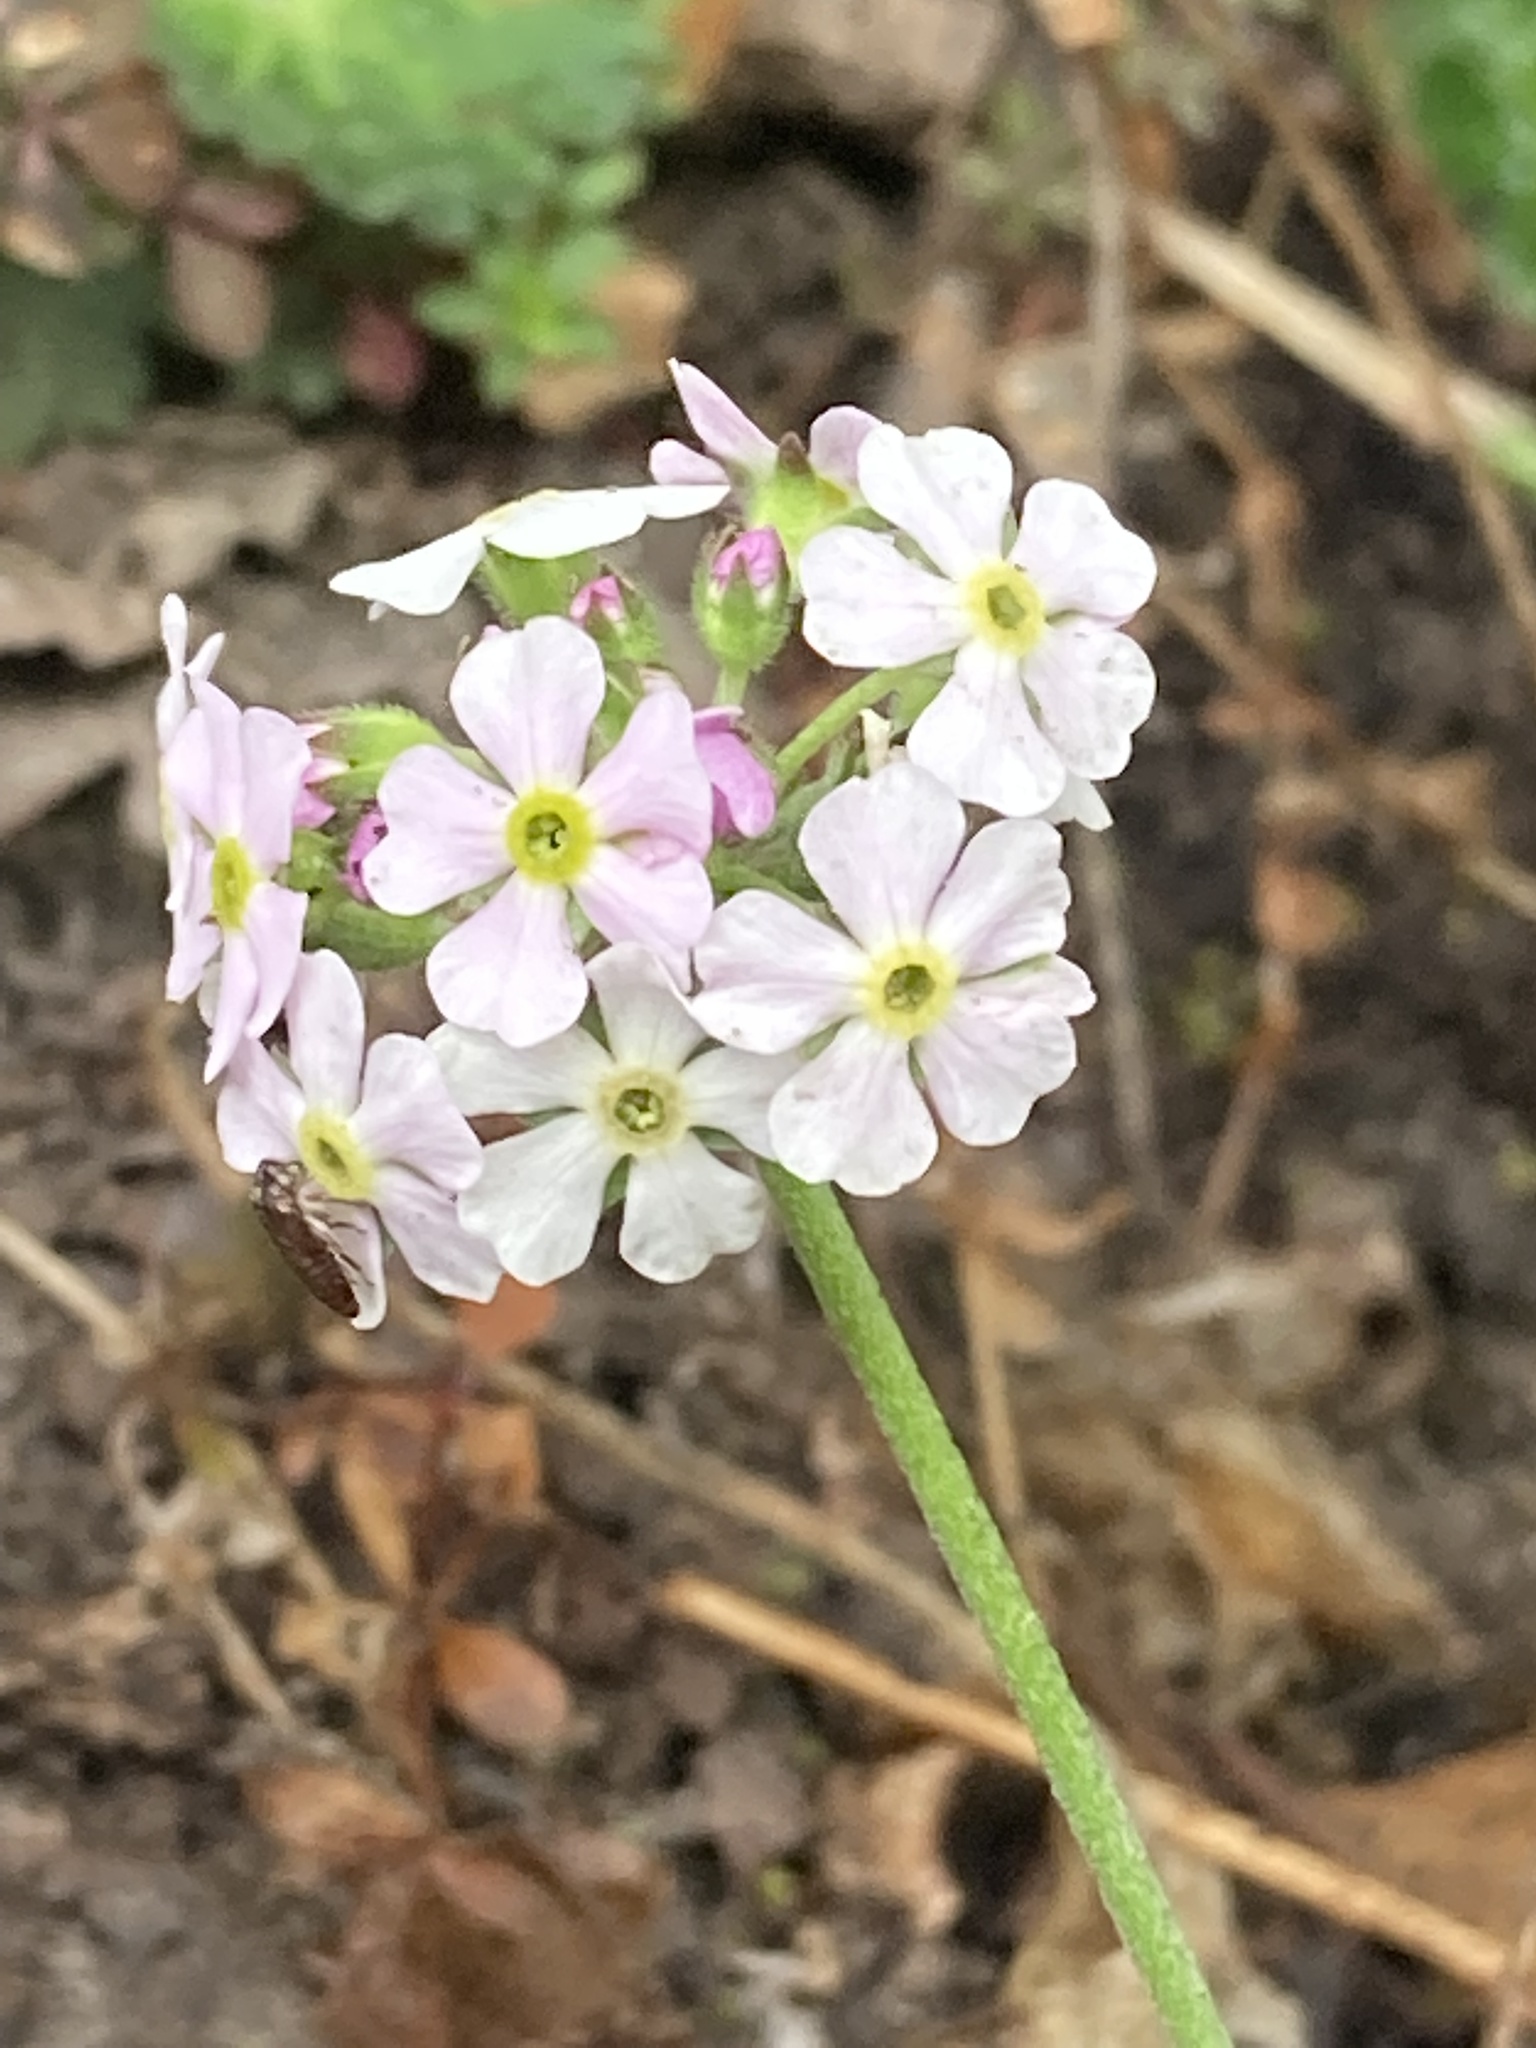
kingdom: Plantae
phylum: Tracheophyta
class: Magnoliopsida
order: Ericales
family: Primulaceae
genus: Androsace
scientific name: Androsace geraniifolia
